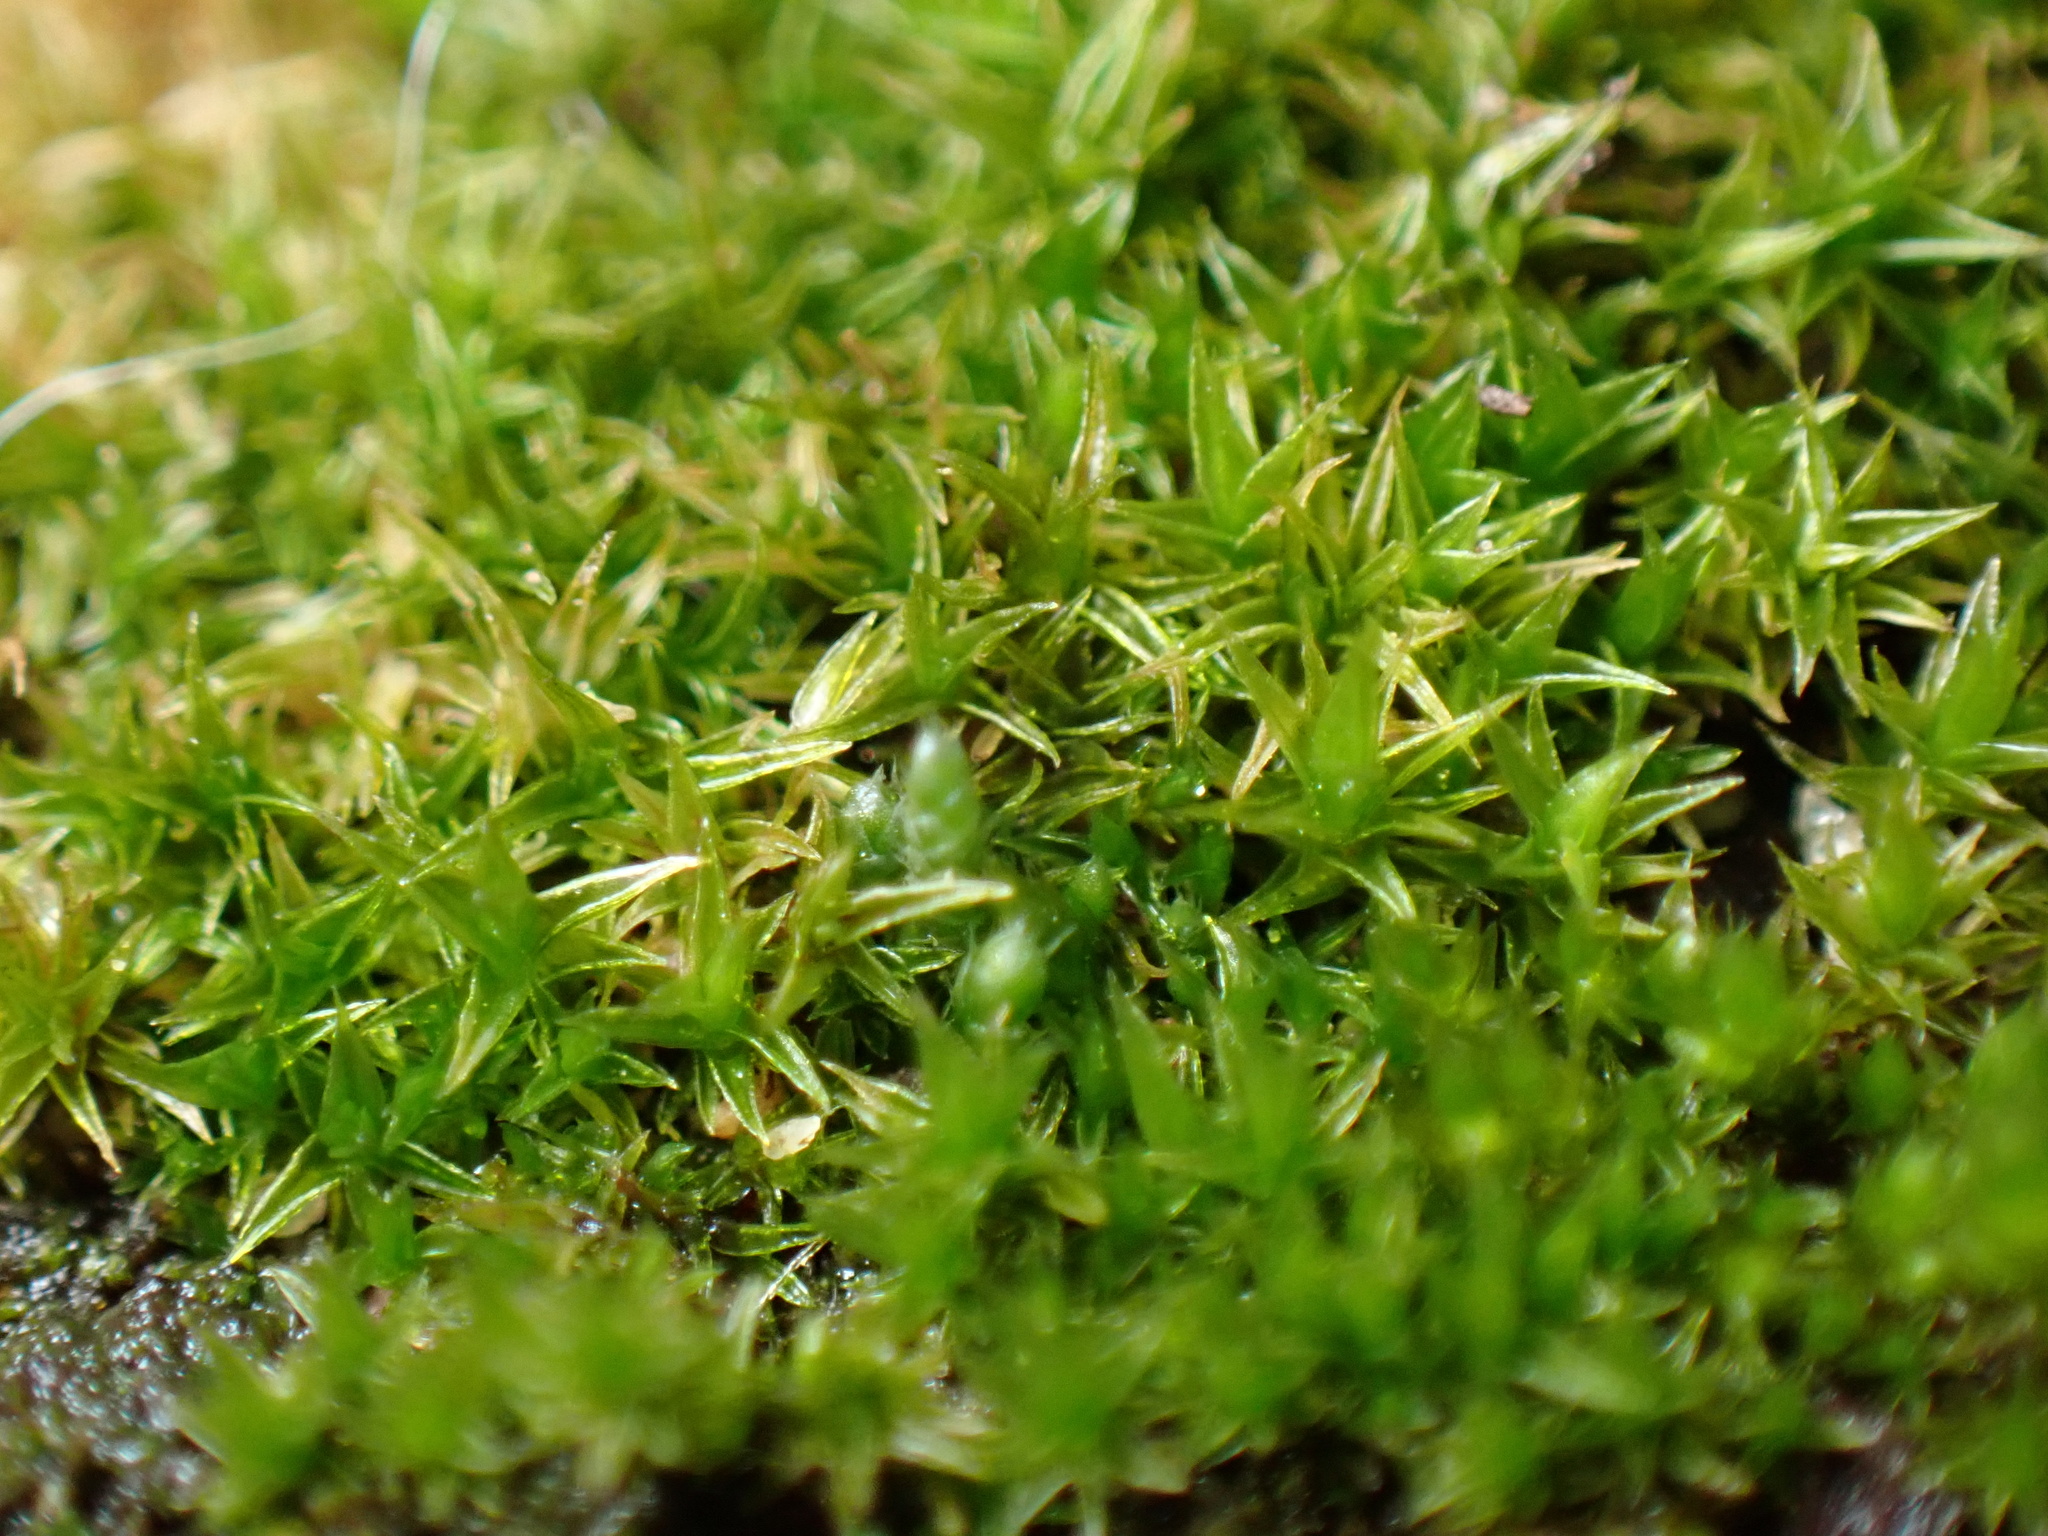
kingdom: Plantae
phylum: Bryophyta
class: Bryopsida
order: Dicranales
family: Ditrichaceae
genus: Ceratodon
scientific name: Ceratodon purpureus
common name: Redshank
